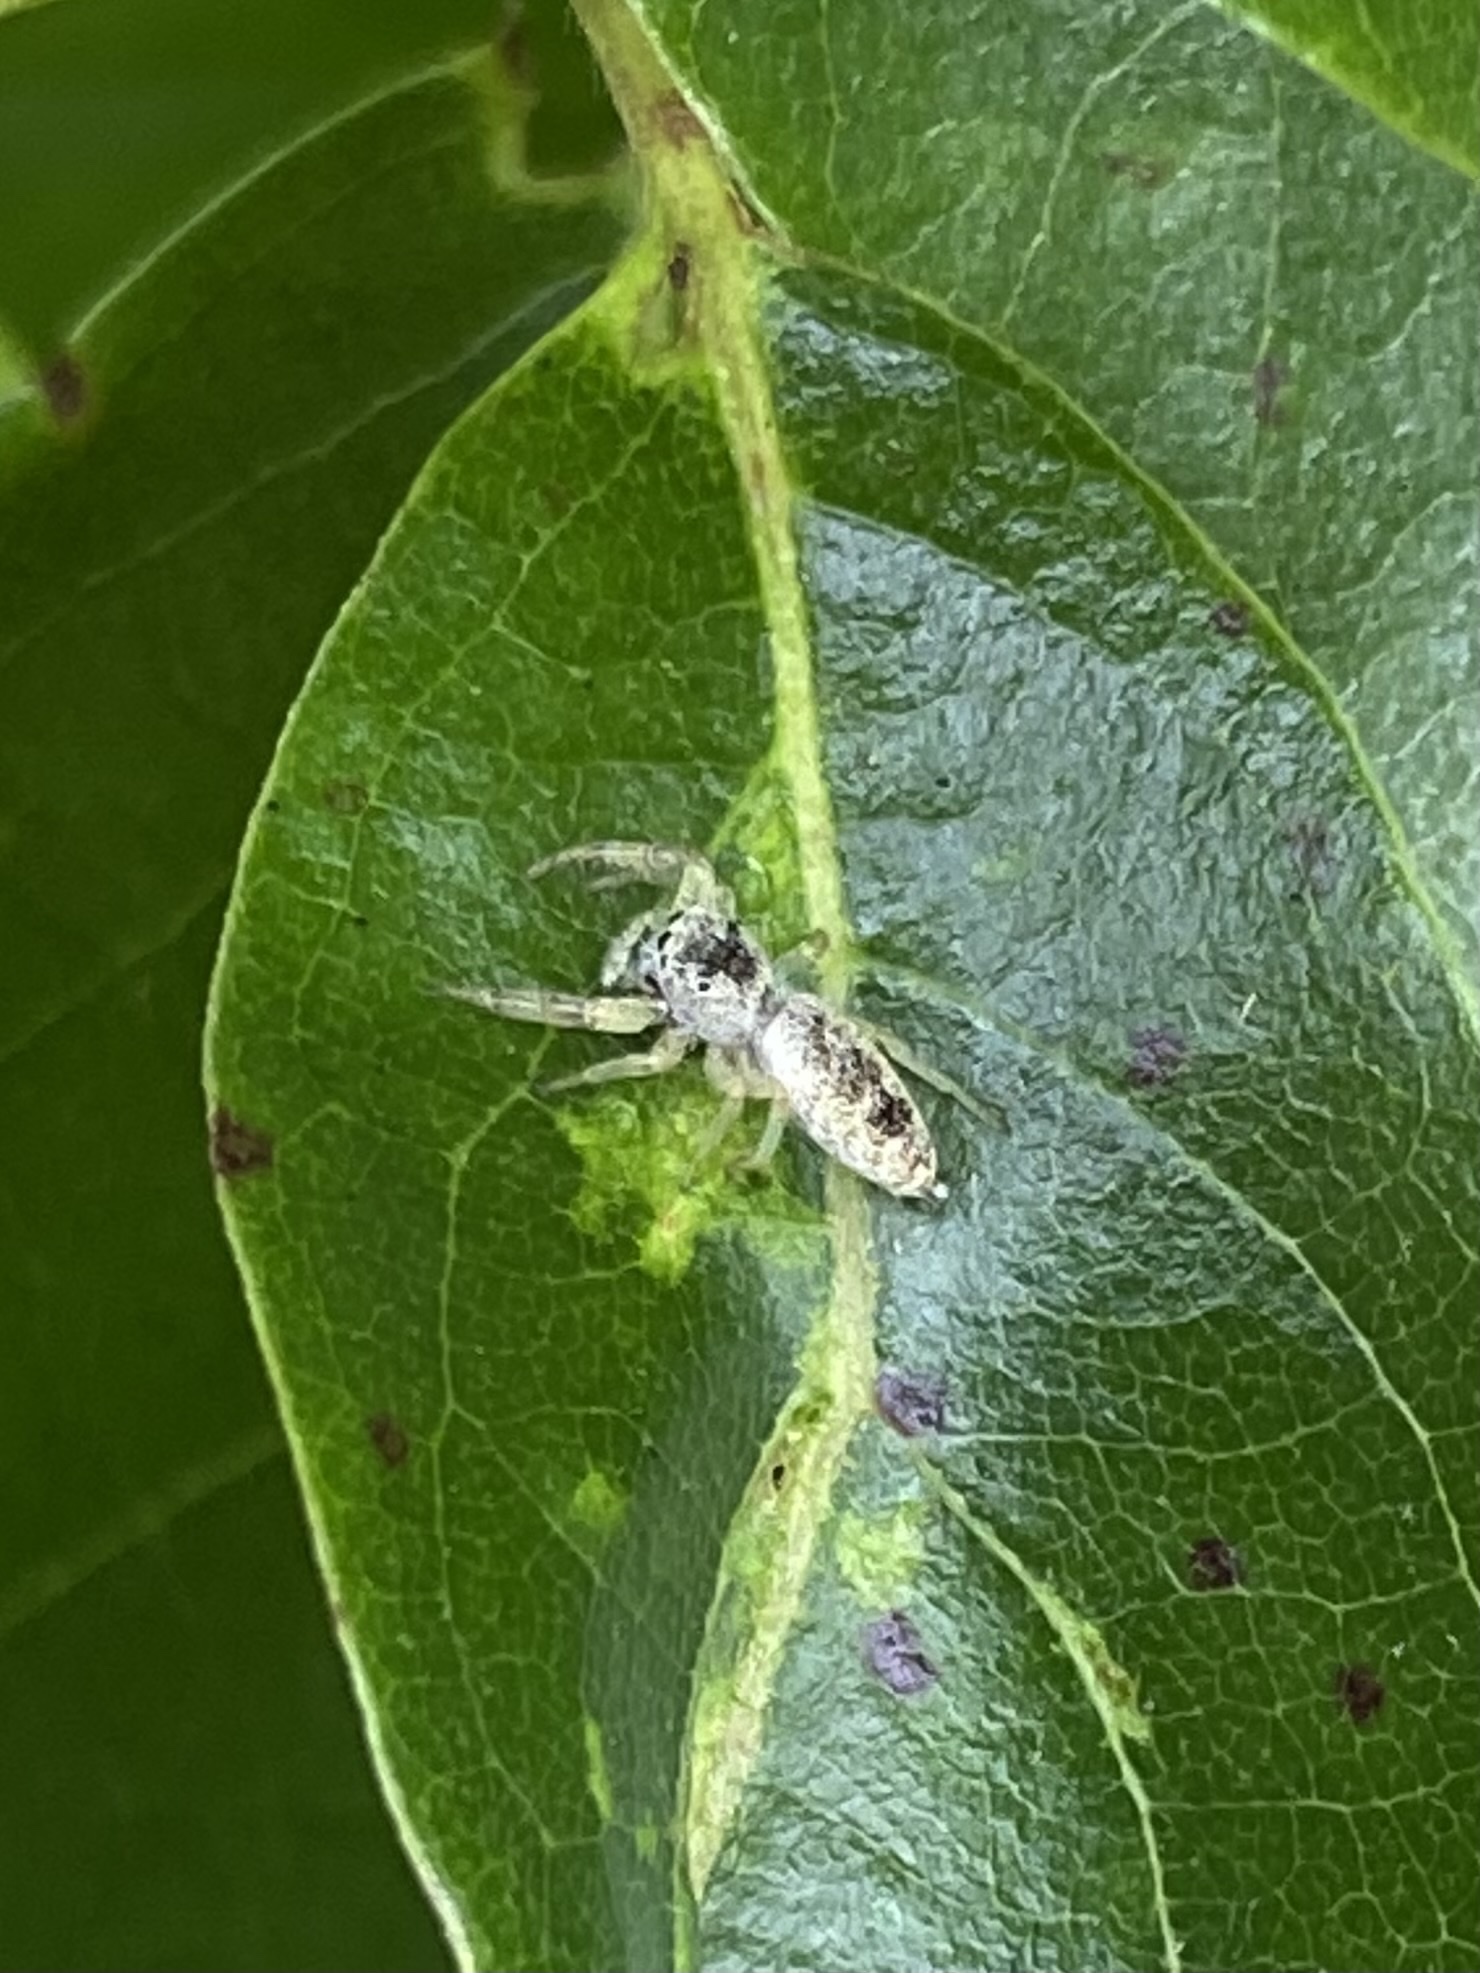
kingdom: Animalia
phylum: Arthropoda
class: Arachnida
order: Araneae
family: Salticidae
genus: Hentzia
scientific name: Hentzia mitrata
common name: White-jawed jumping spider
